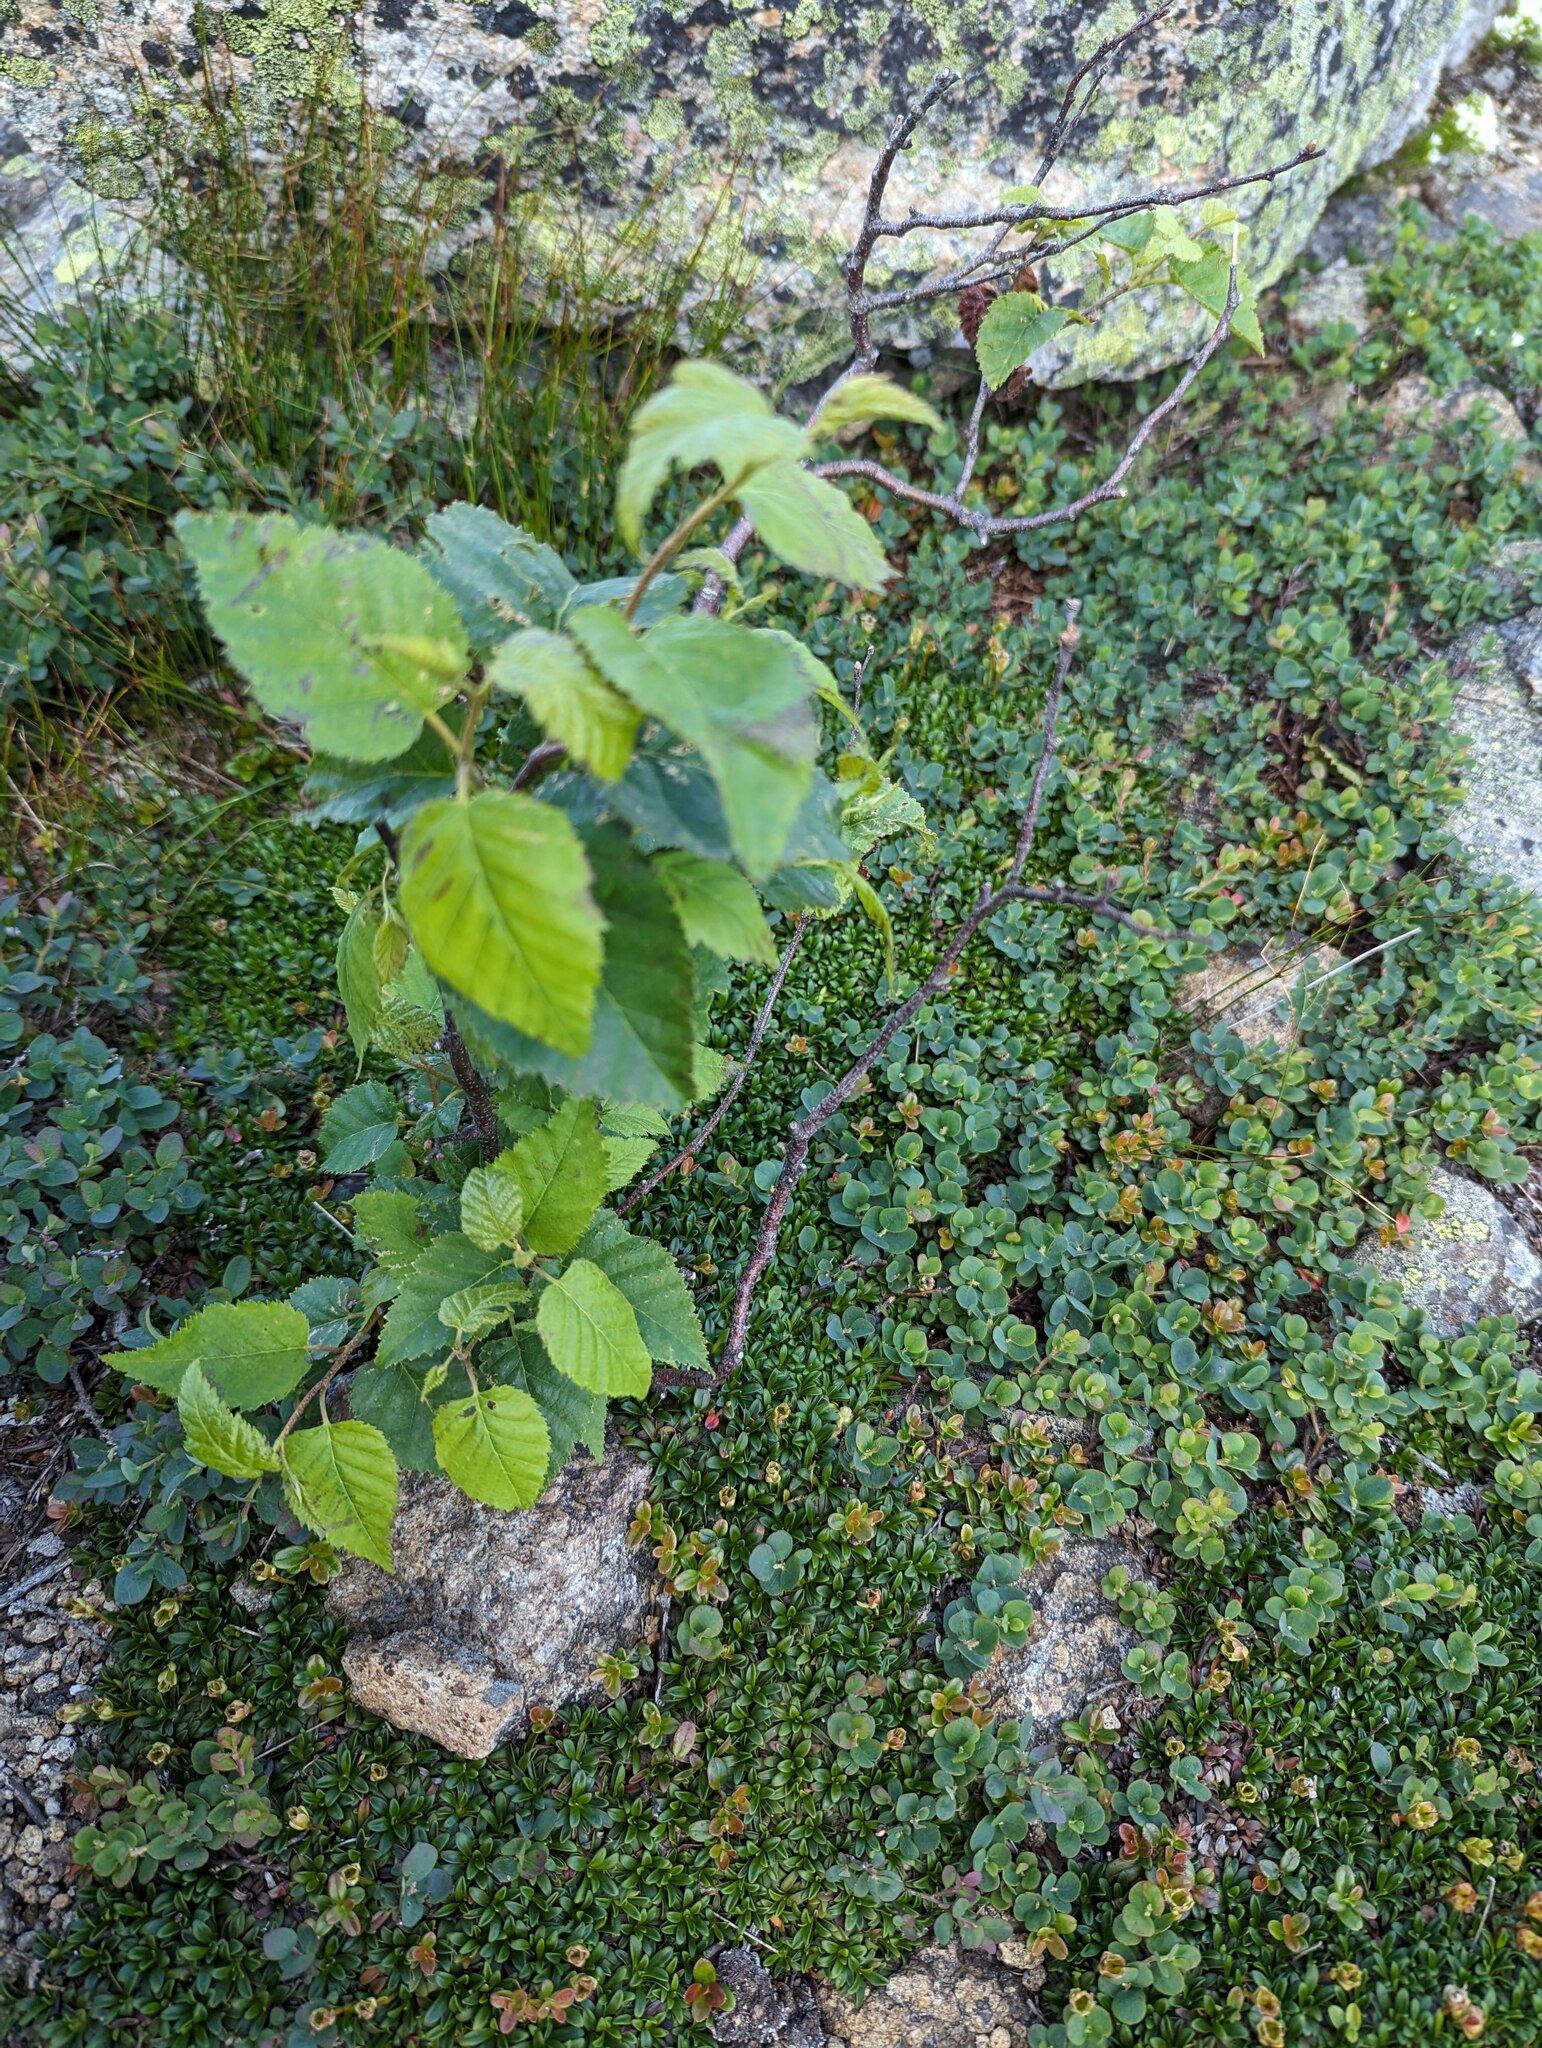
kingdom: Plantae
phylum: Tracheophyta
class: Magnoliopsida
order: Fagales
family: Betulaceae
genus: Betula
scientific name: Betula cordifolia
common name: Mountain white birch
